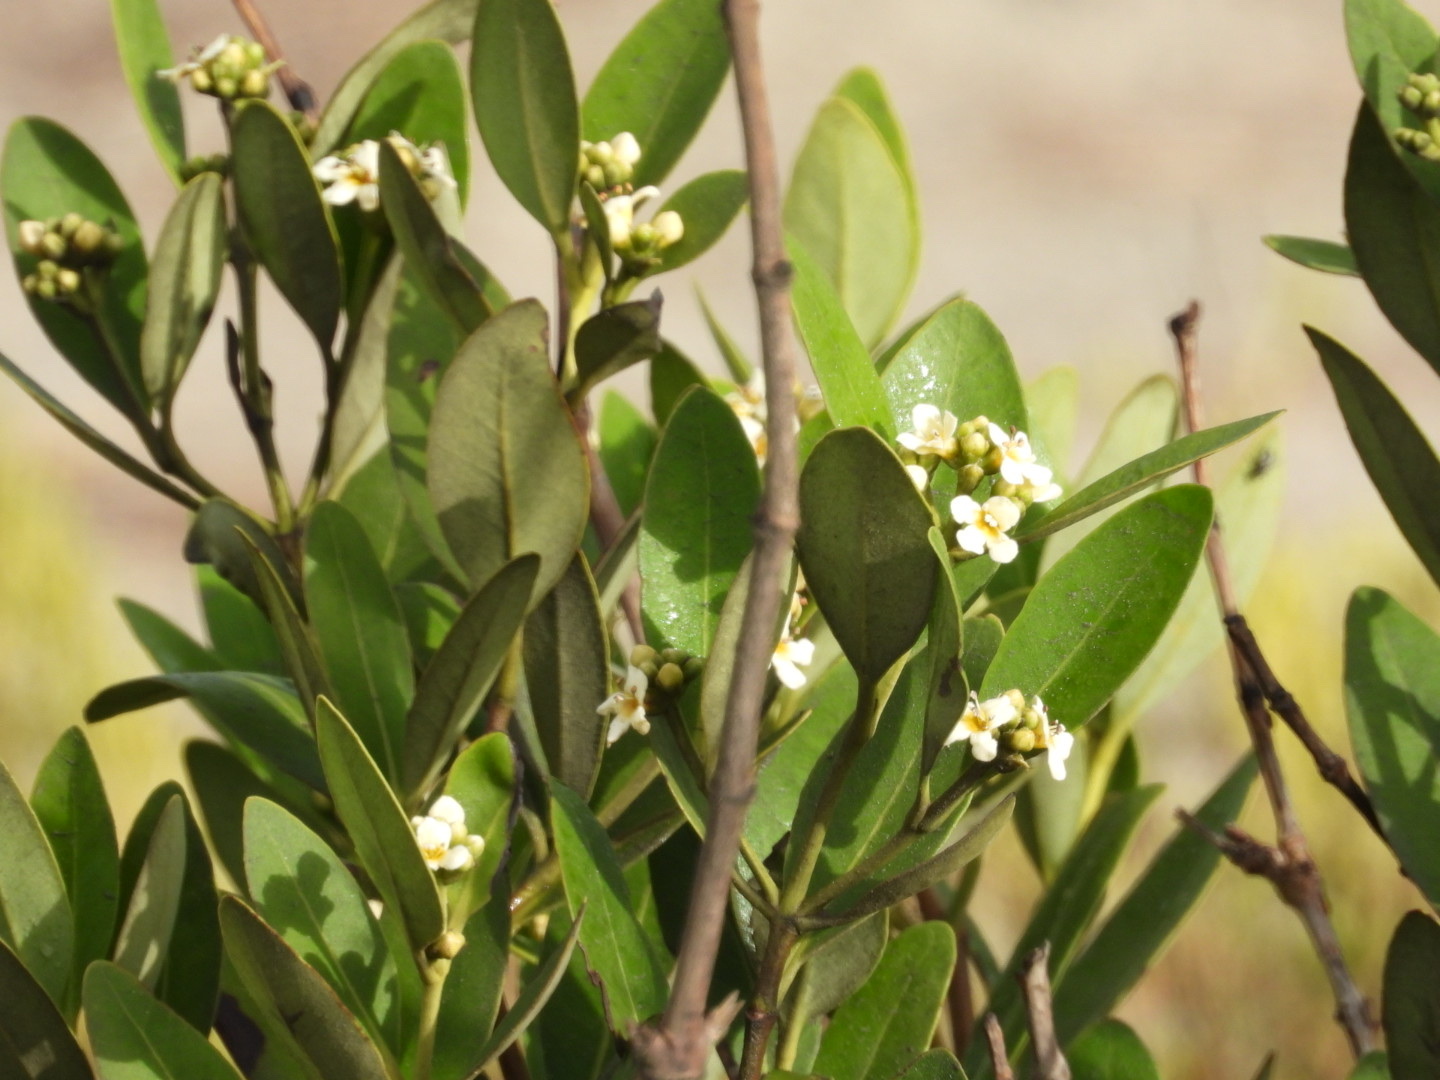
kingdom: Plantae
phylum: Tracheophyta
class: Magnoliopsida
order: Lamiales
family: Acanthaceae
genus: Avicennia
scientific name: Avicennia germinans
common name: Black mangrove
